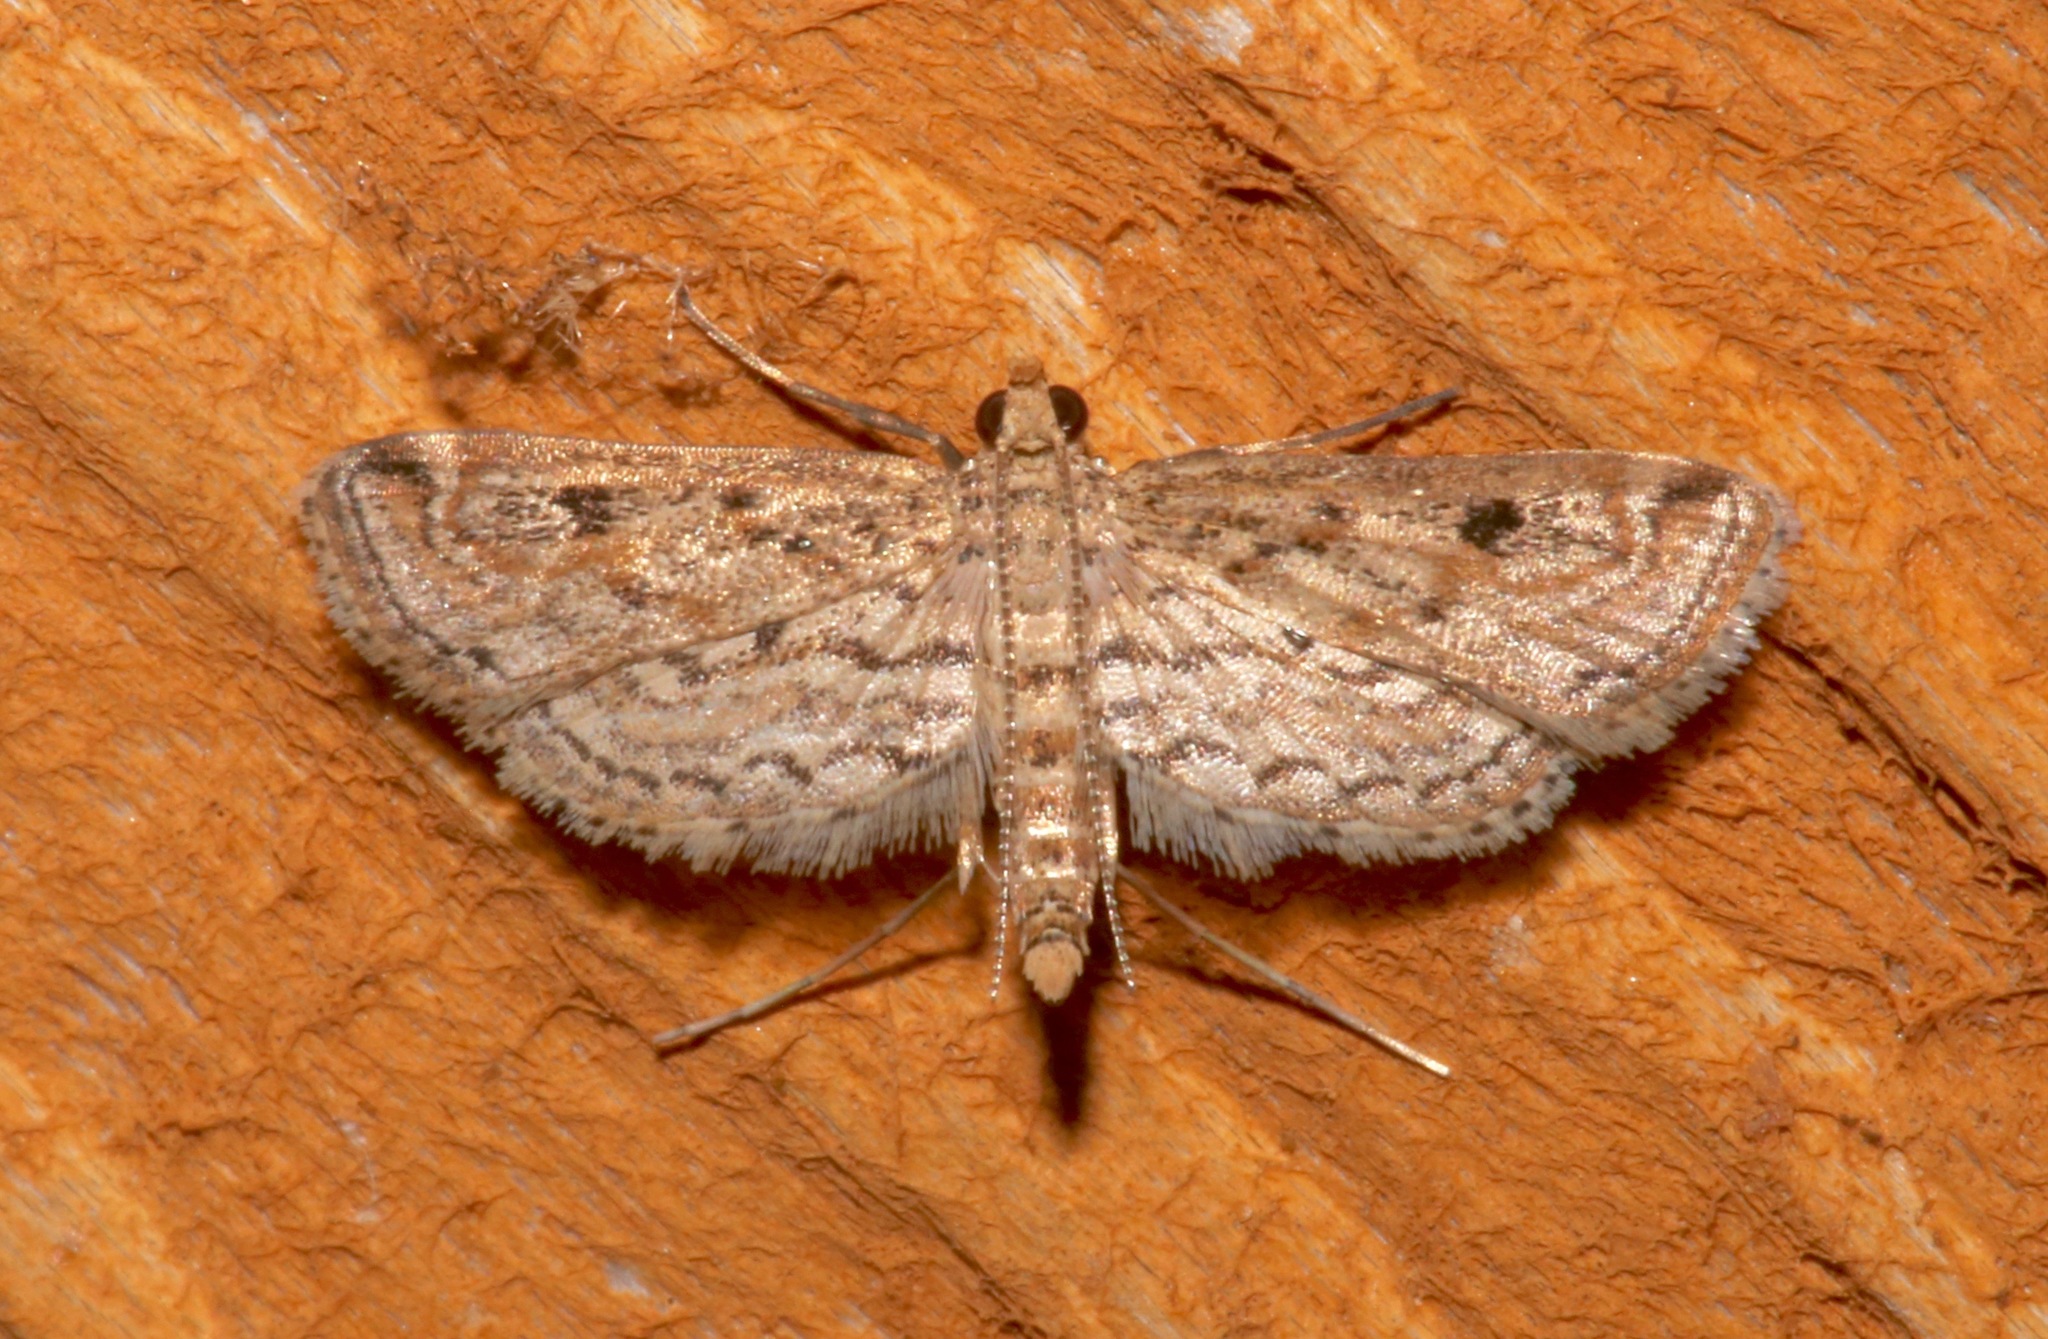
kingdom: Animalia
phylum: Arthropoda
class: Insecta
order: Lepidoptera
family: Crambidae
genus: Parapoynx
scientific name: Parapoynx allionealis
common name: Bladderwort casemaker
